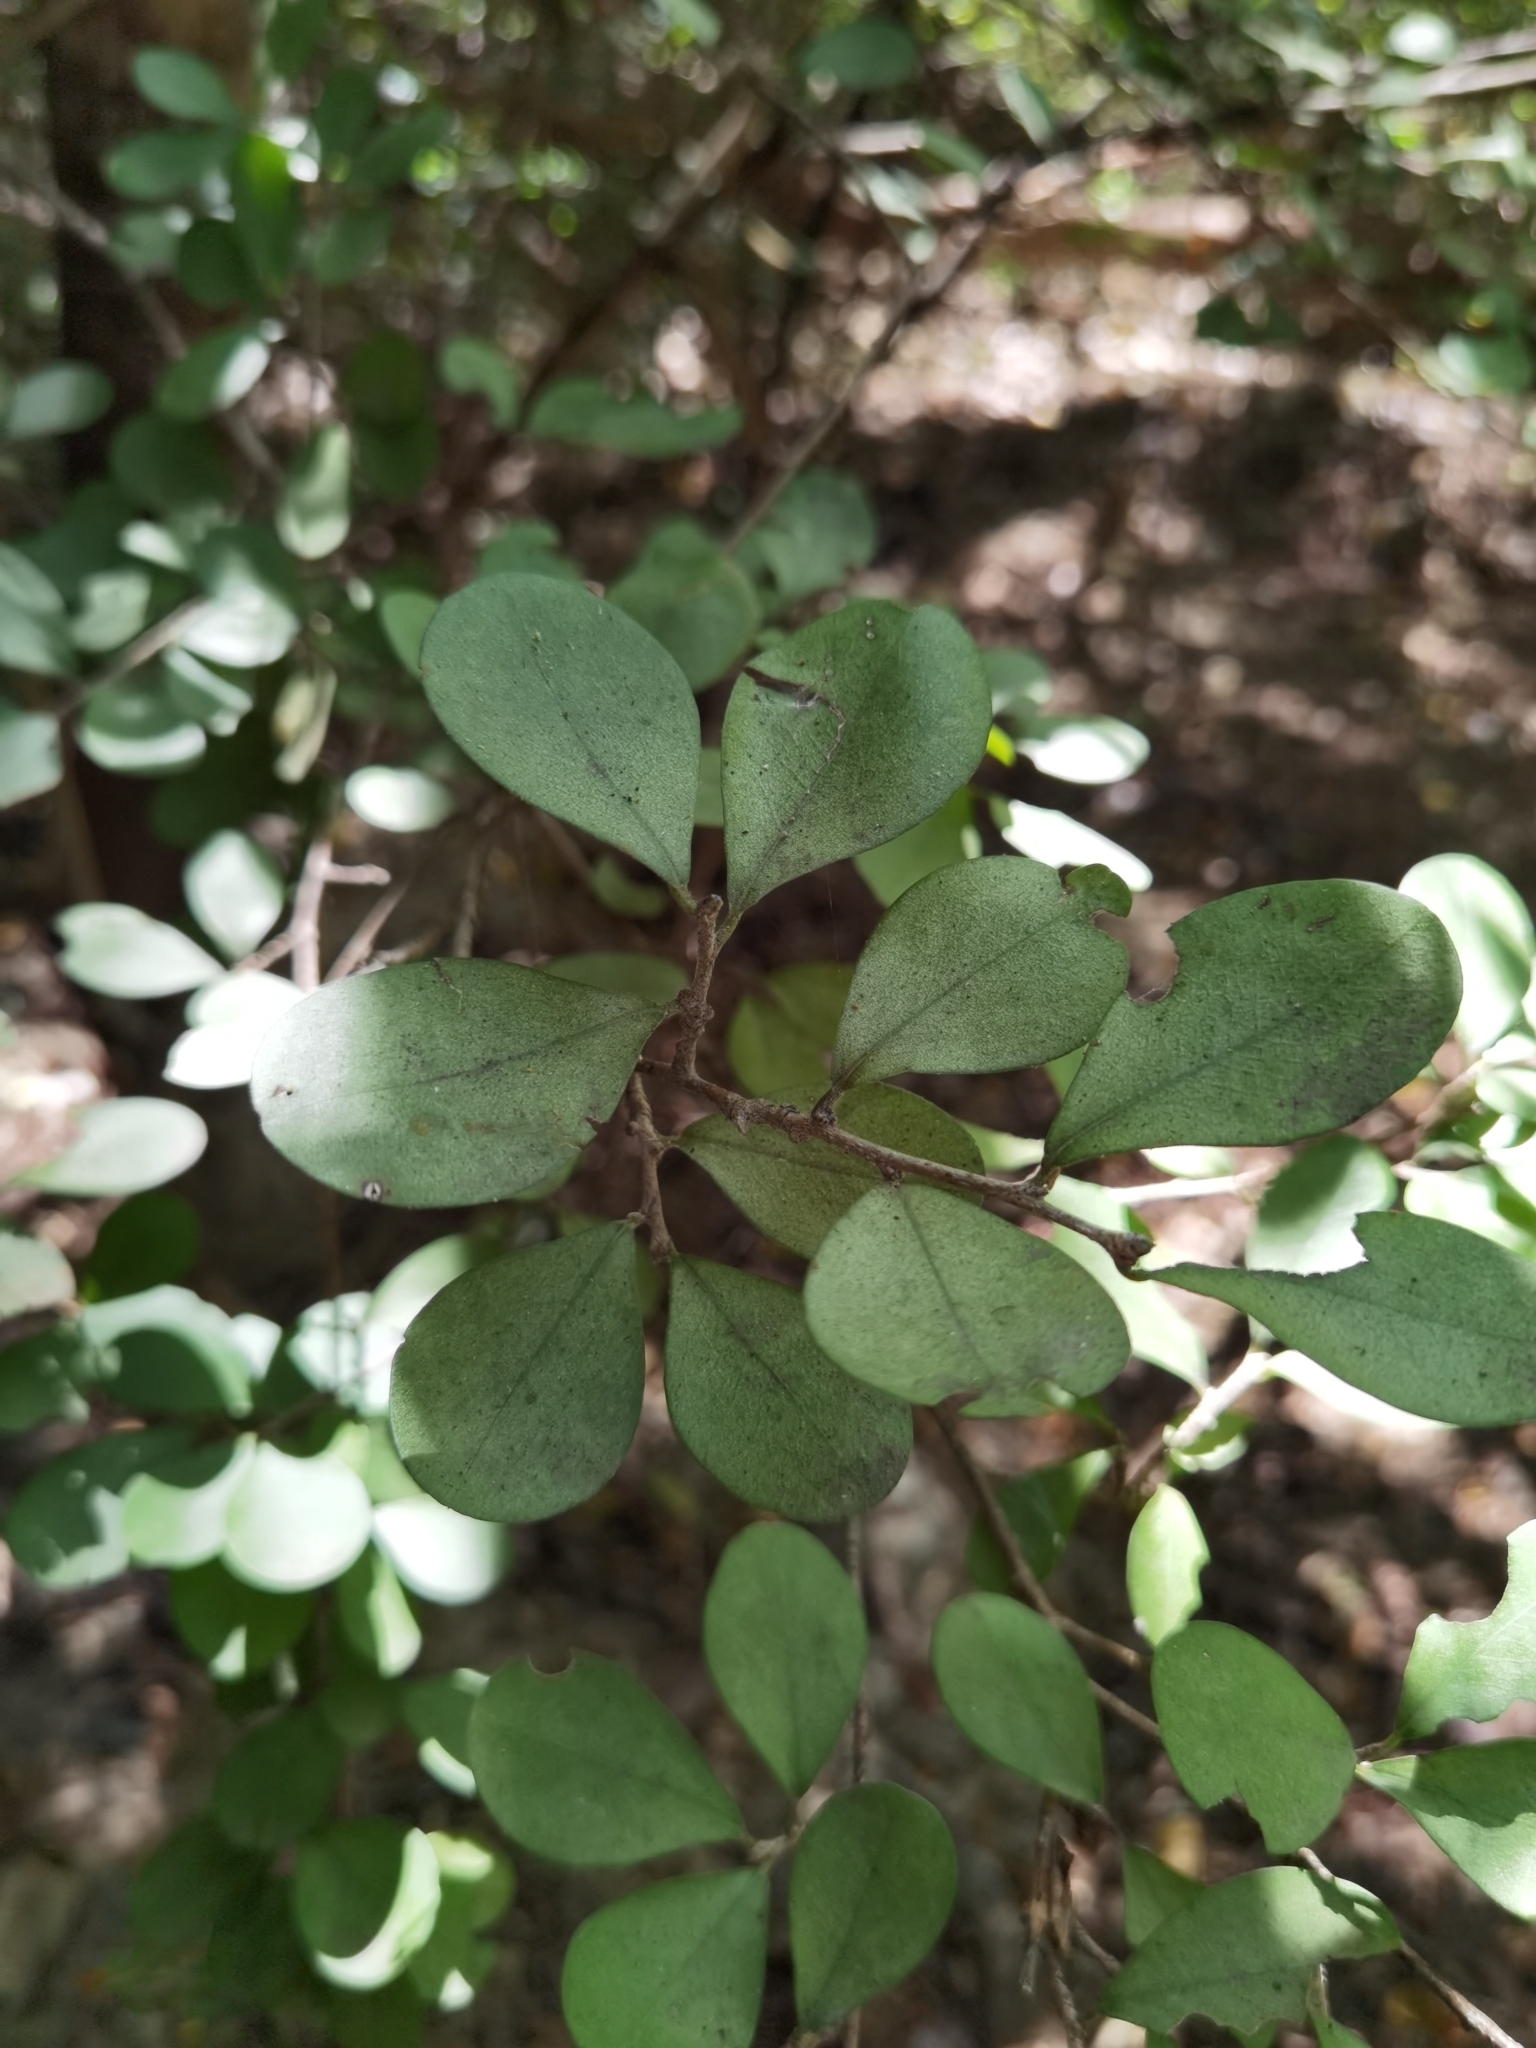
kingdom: Plantae
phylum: Tracheophyta
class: Magnoliopsida
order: Malpighiales
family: Erythroxylaceae
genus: Erythroxylum
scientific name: Erythroxylum havanense
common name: Bracelet
